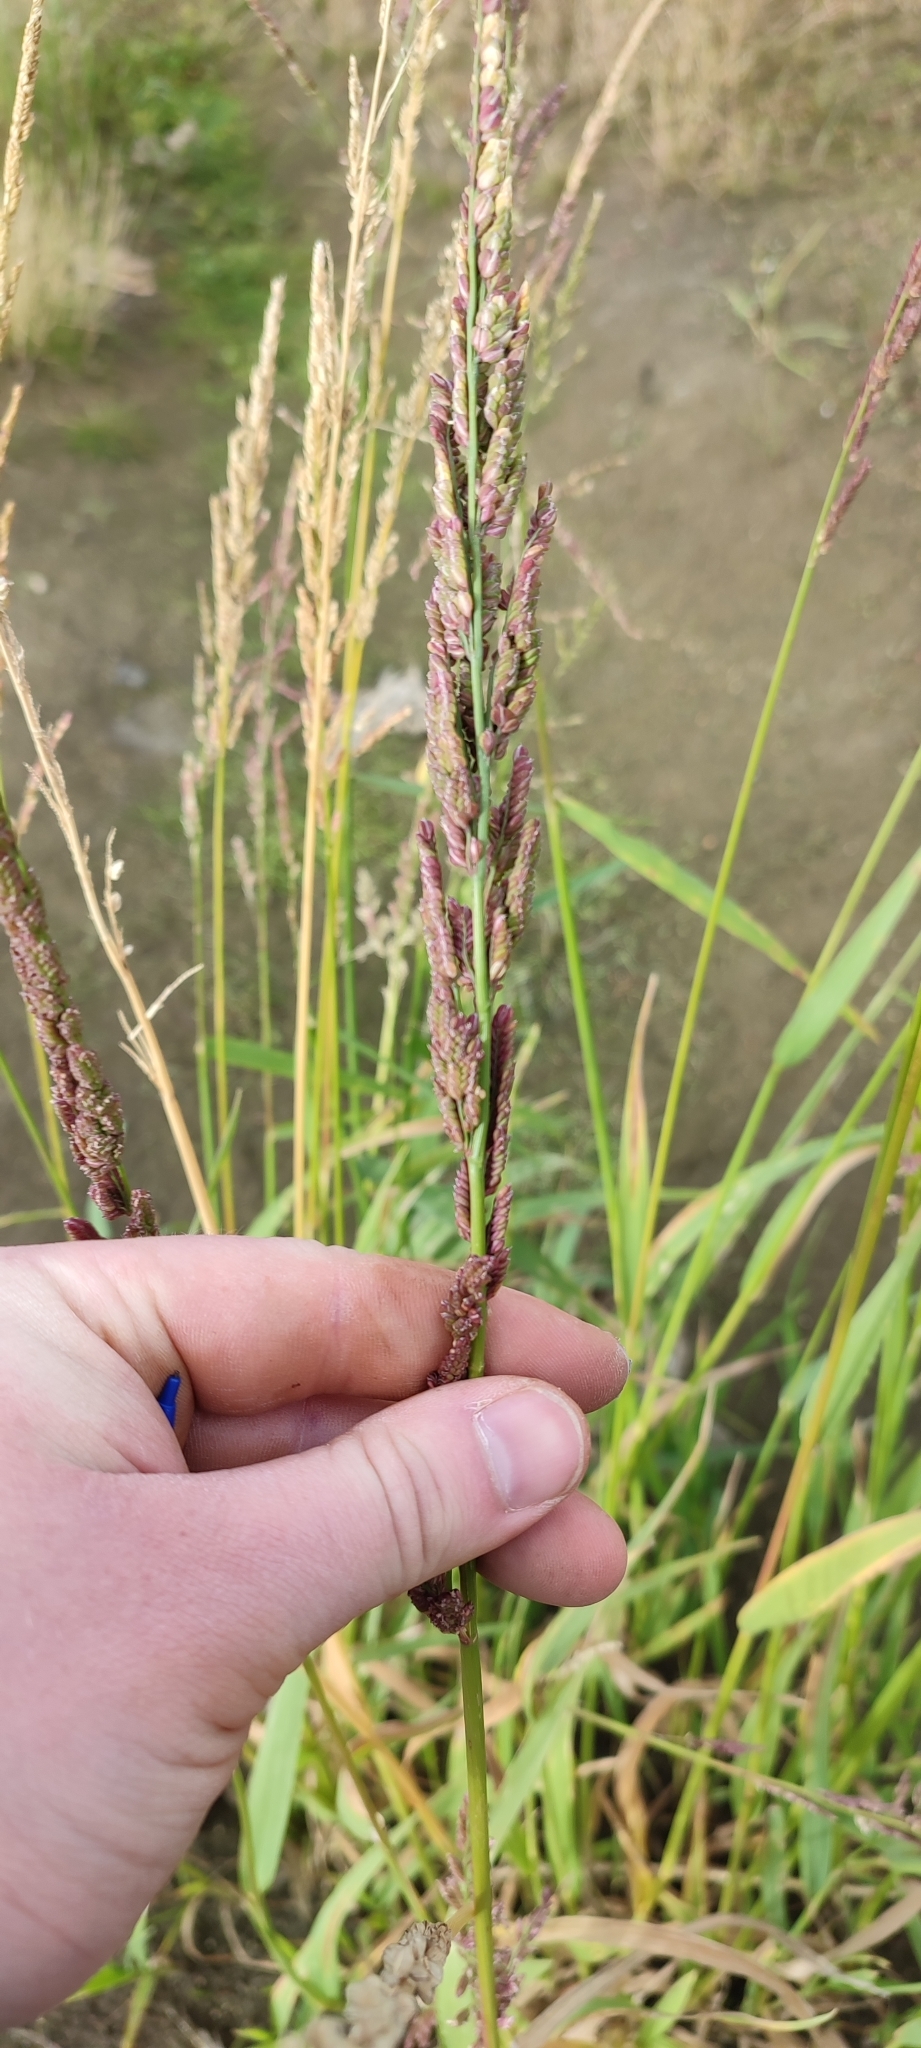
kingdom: Plantae
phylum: Tracheophyta
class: Liliopsida
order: Poales
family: Poaceae
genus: Beckmannia
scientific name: Beckmannia syzigachne
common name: American slough-grass
